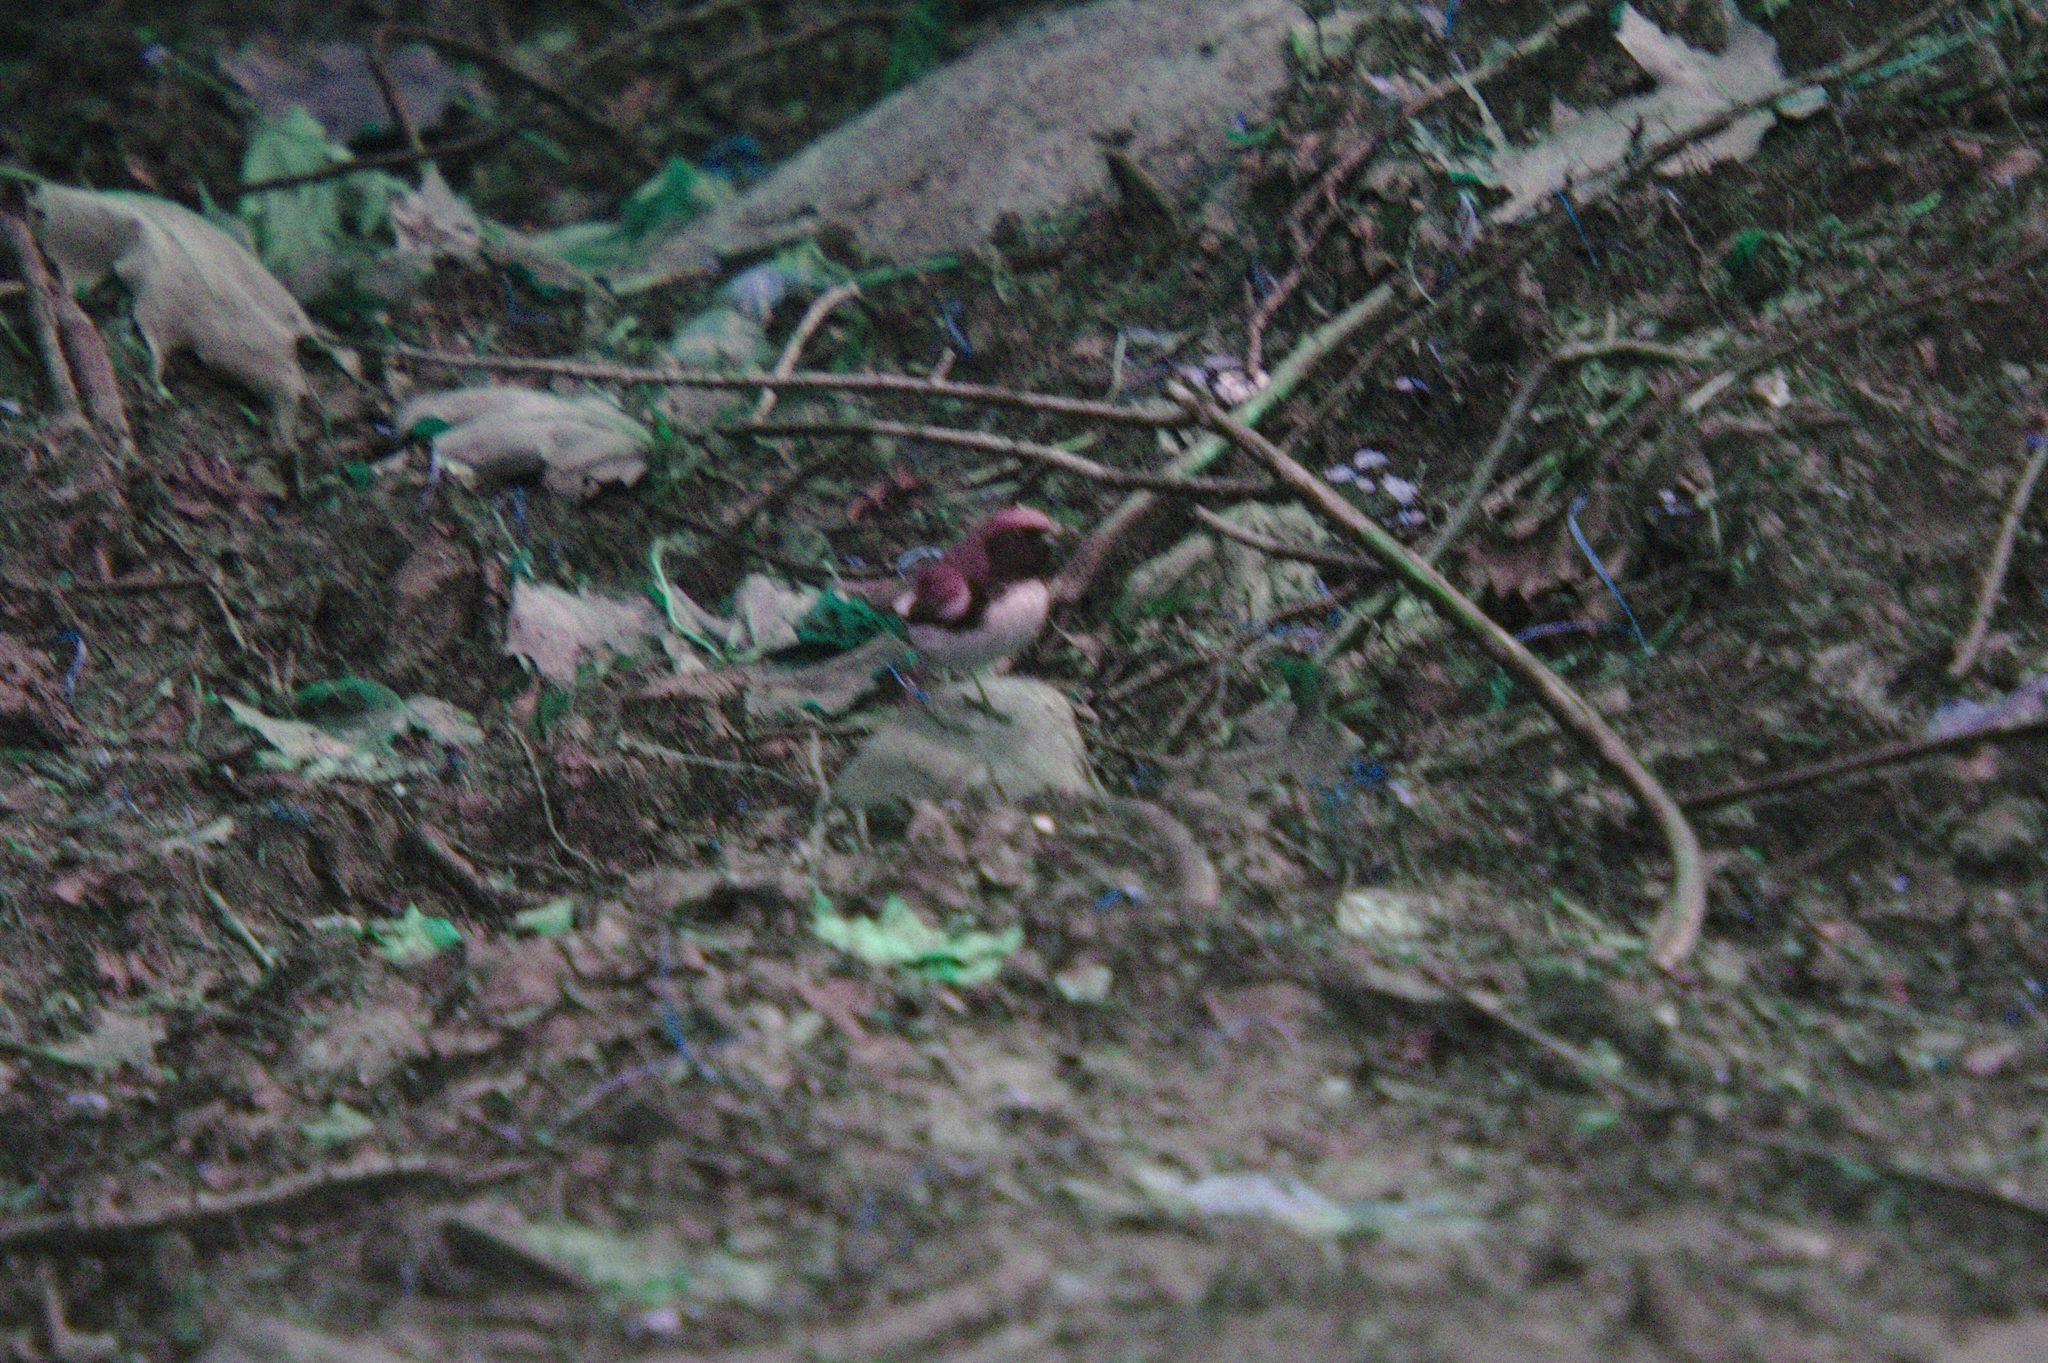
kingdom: Animalia
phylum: Chordata
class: Aves
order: Passeriformes
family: Parulidae
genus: Setophaga
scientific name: Setophaga caerulescens
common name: Black-throated blue warbler
